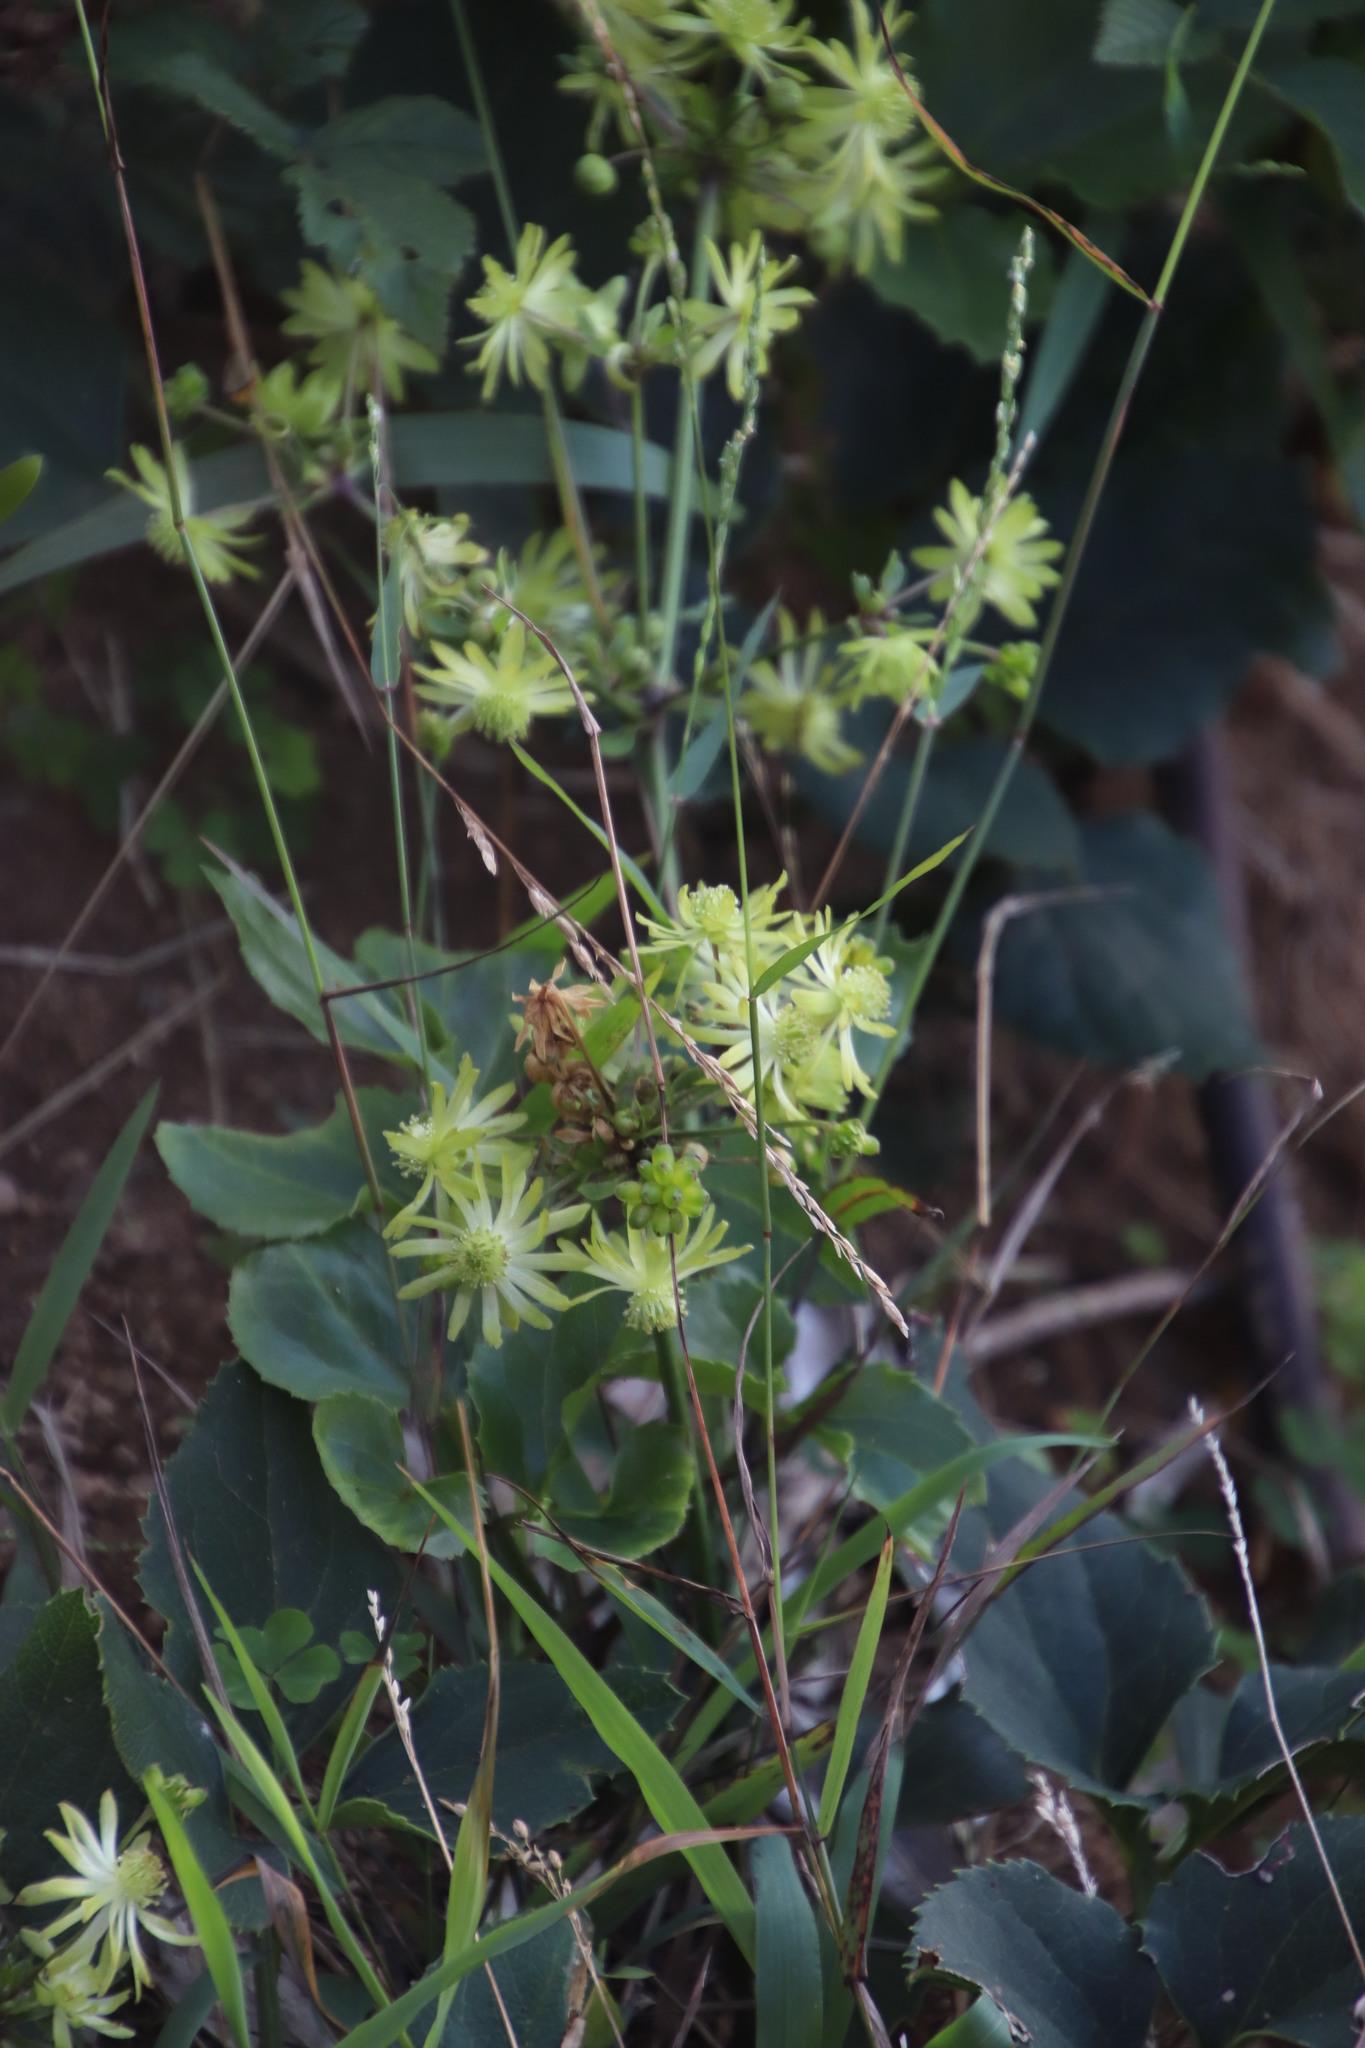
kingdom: Plantae
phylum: Tracheophyta
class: Magnoliopsida
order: Ranunculales
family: Ranunculaceae
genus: Knowltonia
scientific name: Knowltonia vesicatoria
